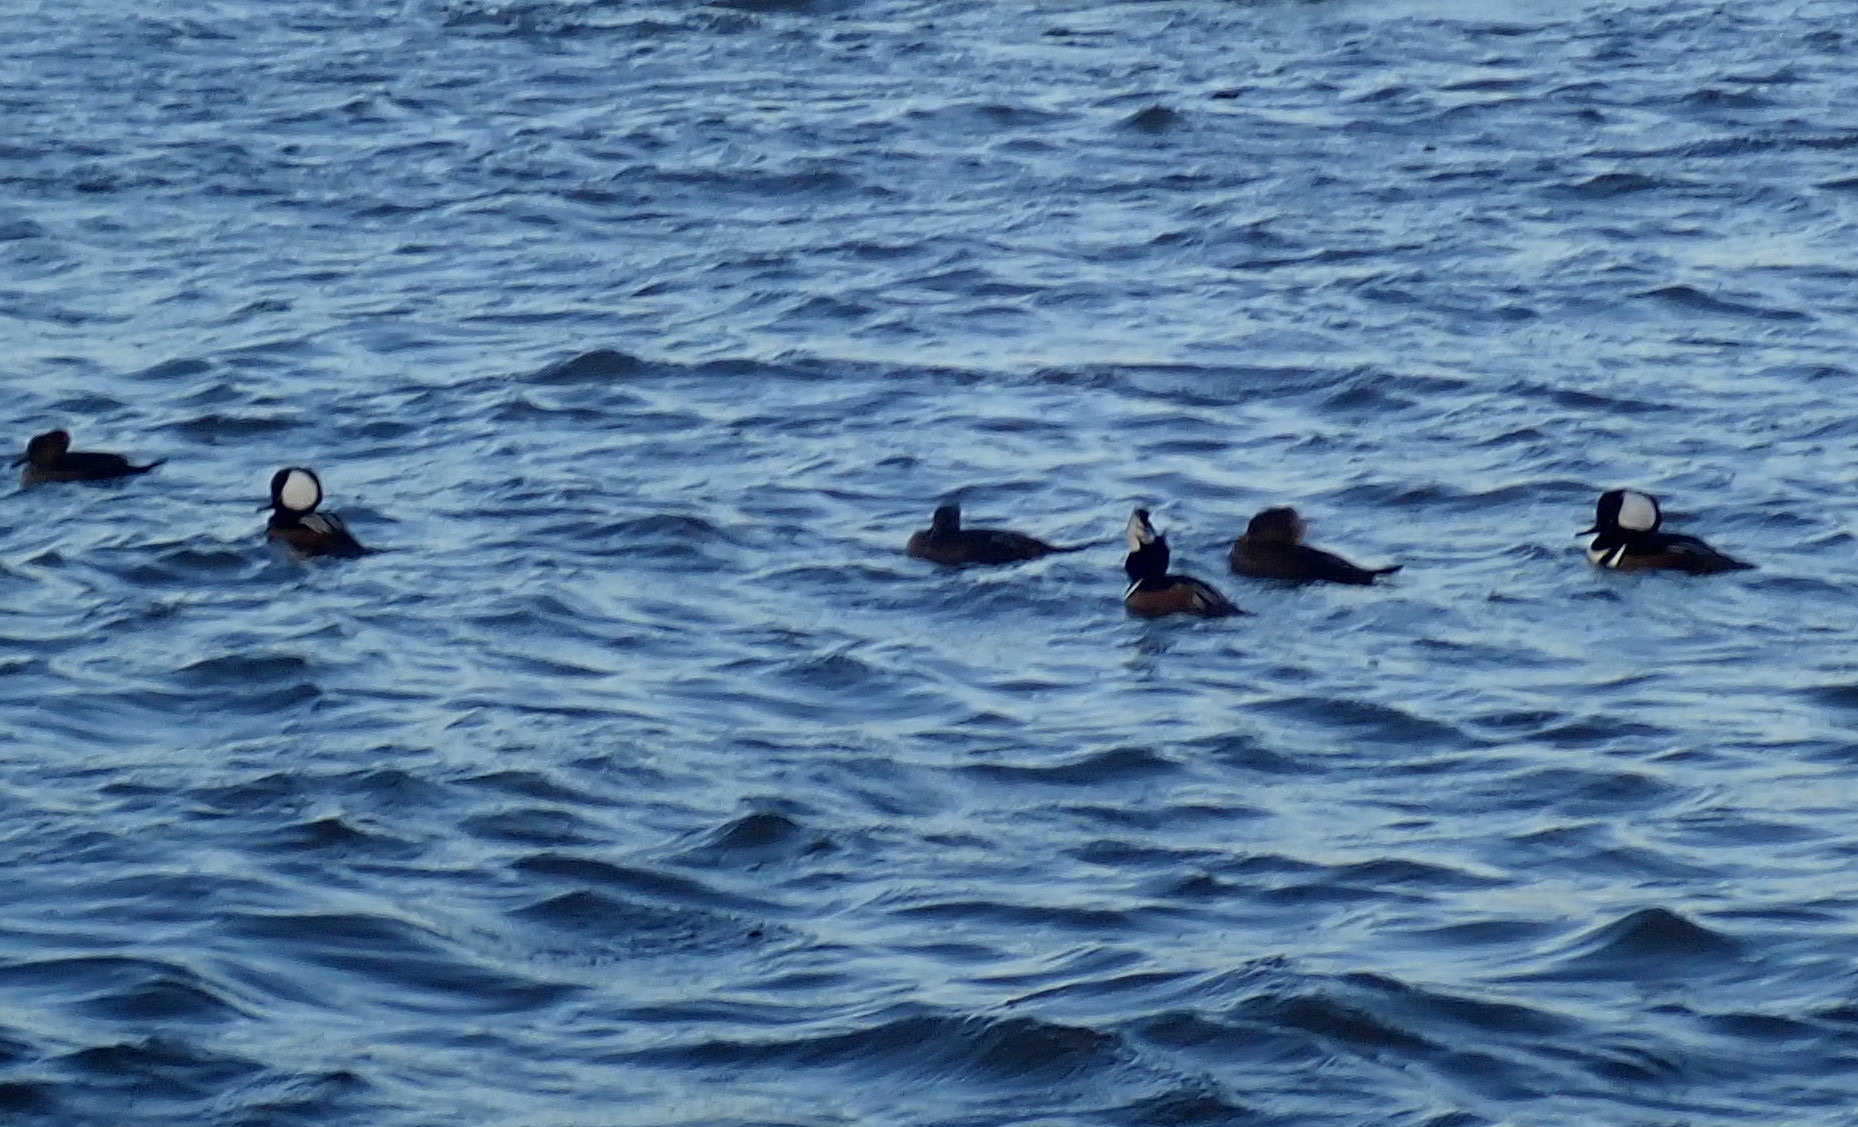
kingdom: Animalia
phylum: Chordata
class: Aves
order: Anseriformes
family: Anatidae
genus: Lophodytes
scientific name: Lophodytes cucullatus
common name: Hooded merganser
